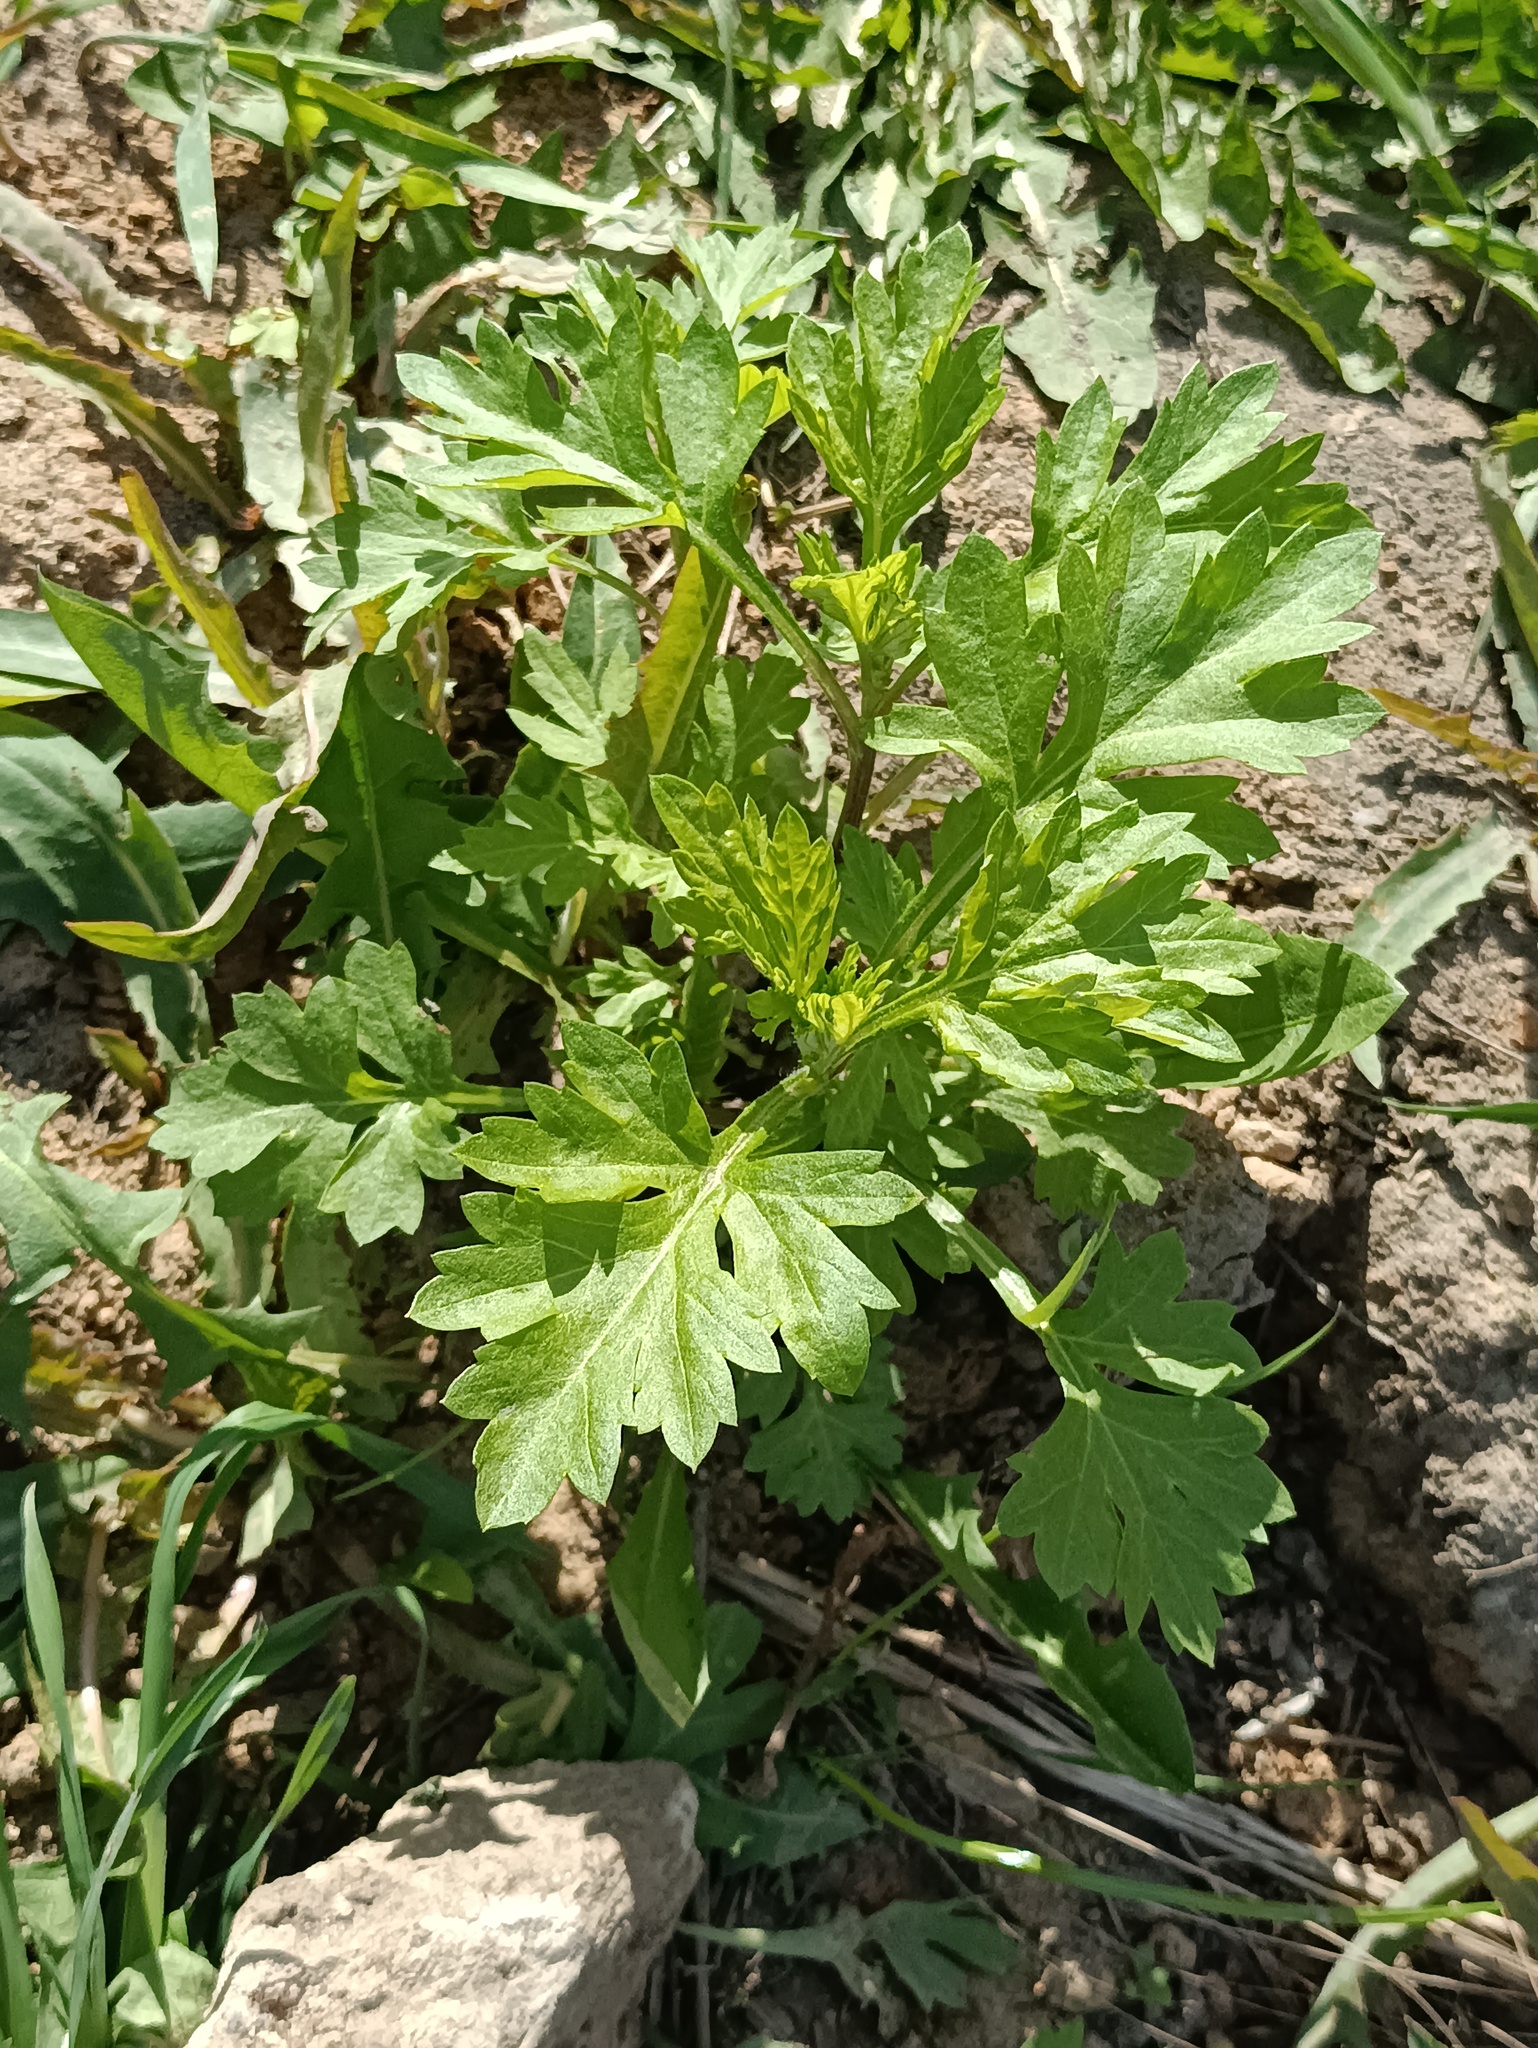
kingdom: Plantae
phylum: Tracheophyta
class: Magnoliopsida
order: Asterales
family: Asteraceae
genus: Artemisia
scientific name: Artemisia vulgaris
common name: Mugwort
